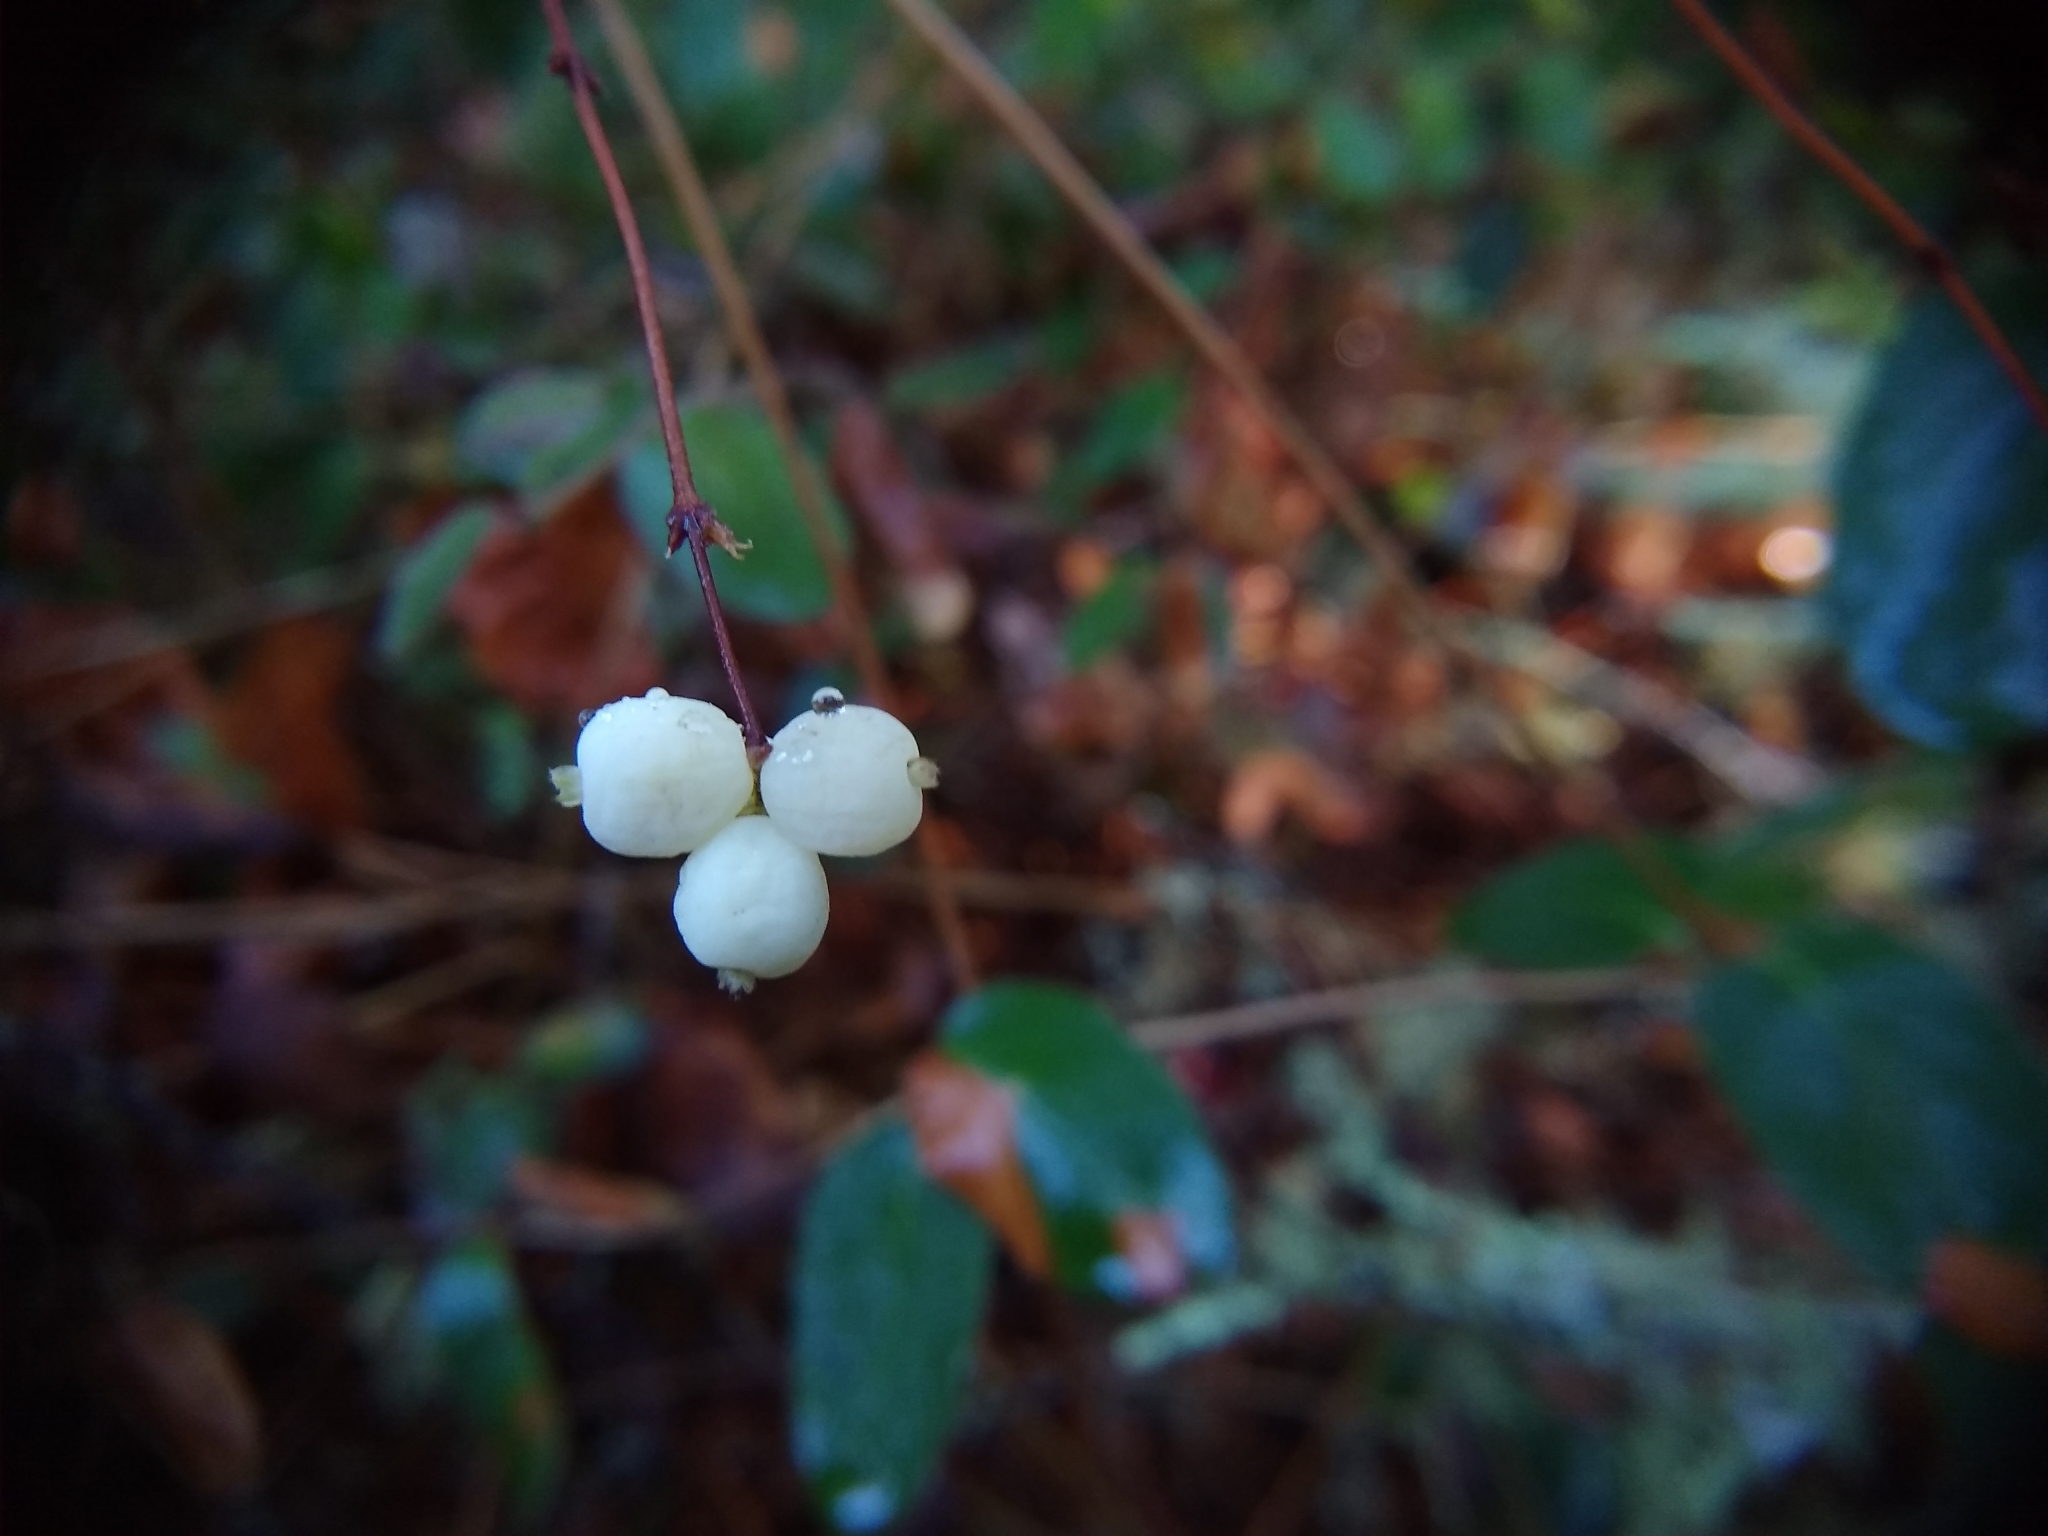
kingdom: Plantae
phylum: Tracheophyta
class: Magnoliopsida
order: Dipsacales
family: Caprifoliaceae
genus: Symphoricarpos
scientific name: Symphoricarpos albus
